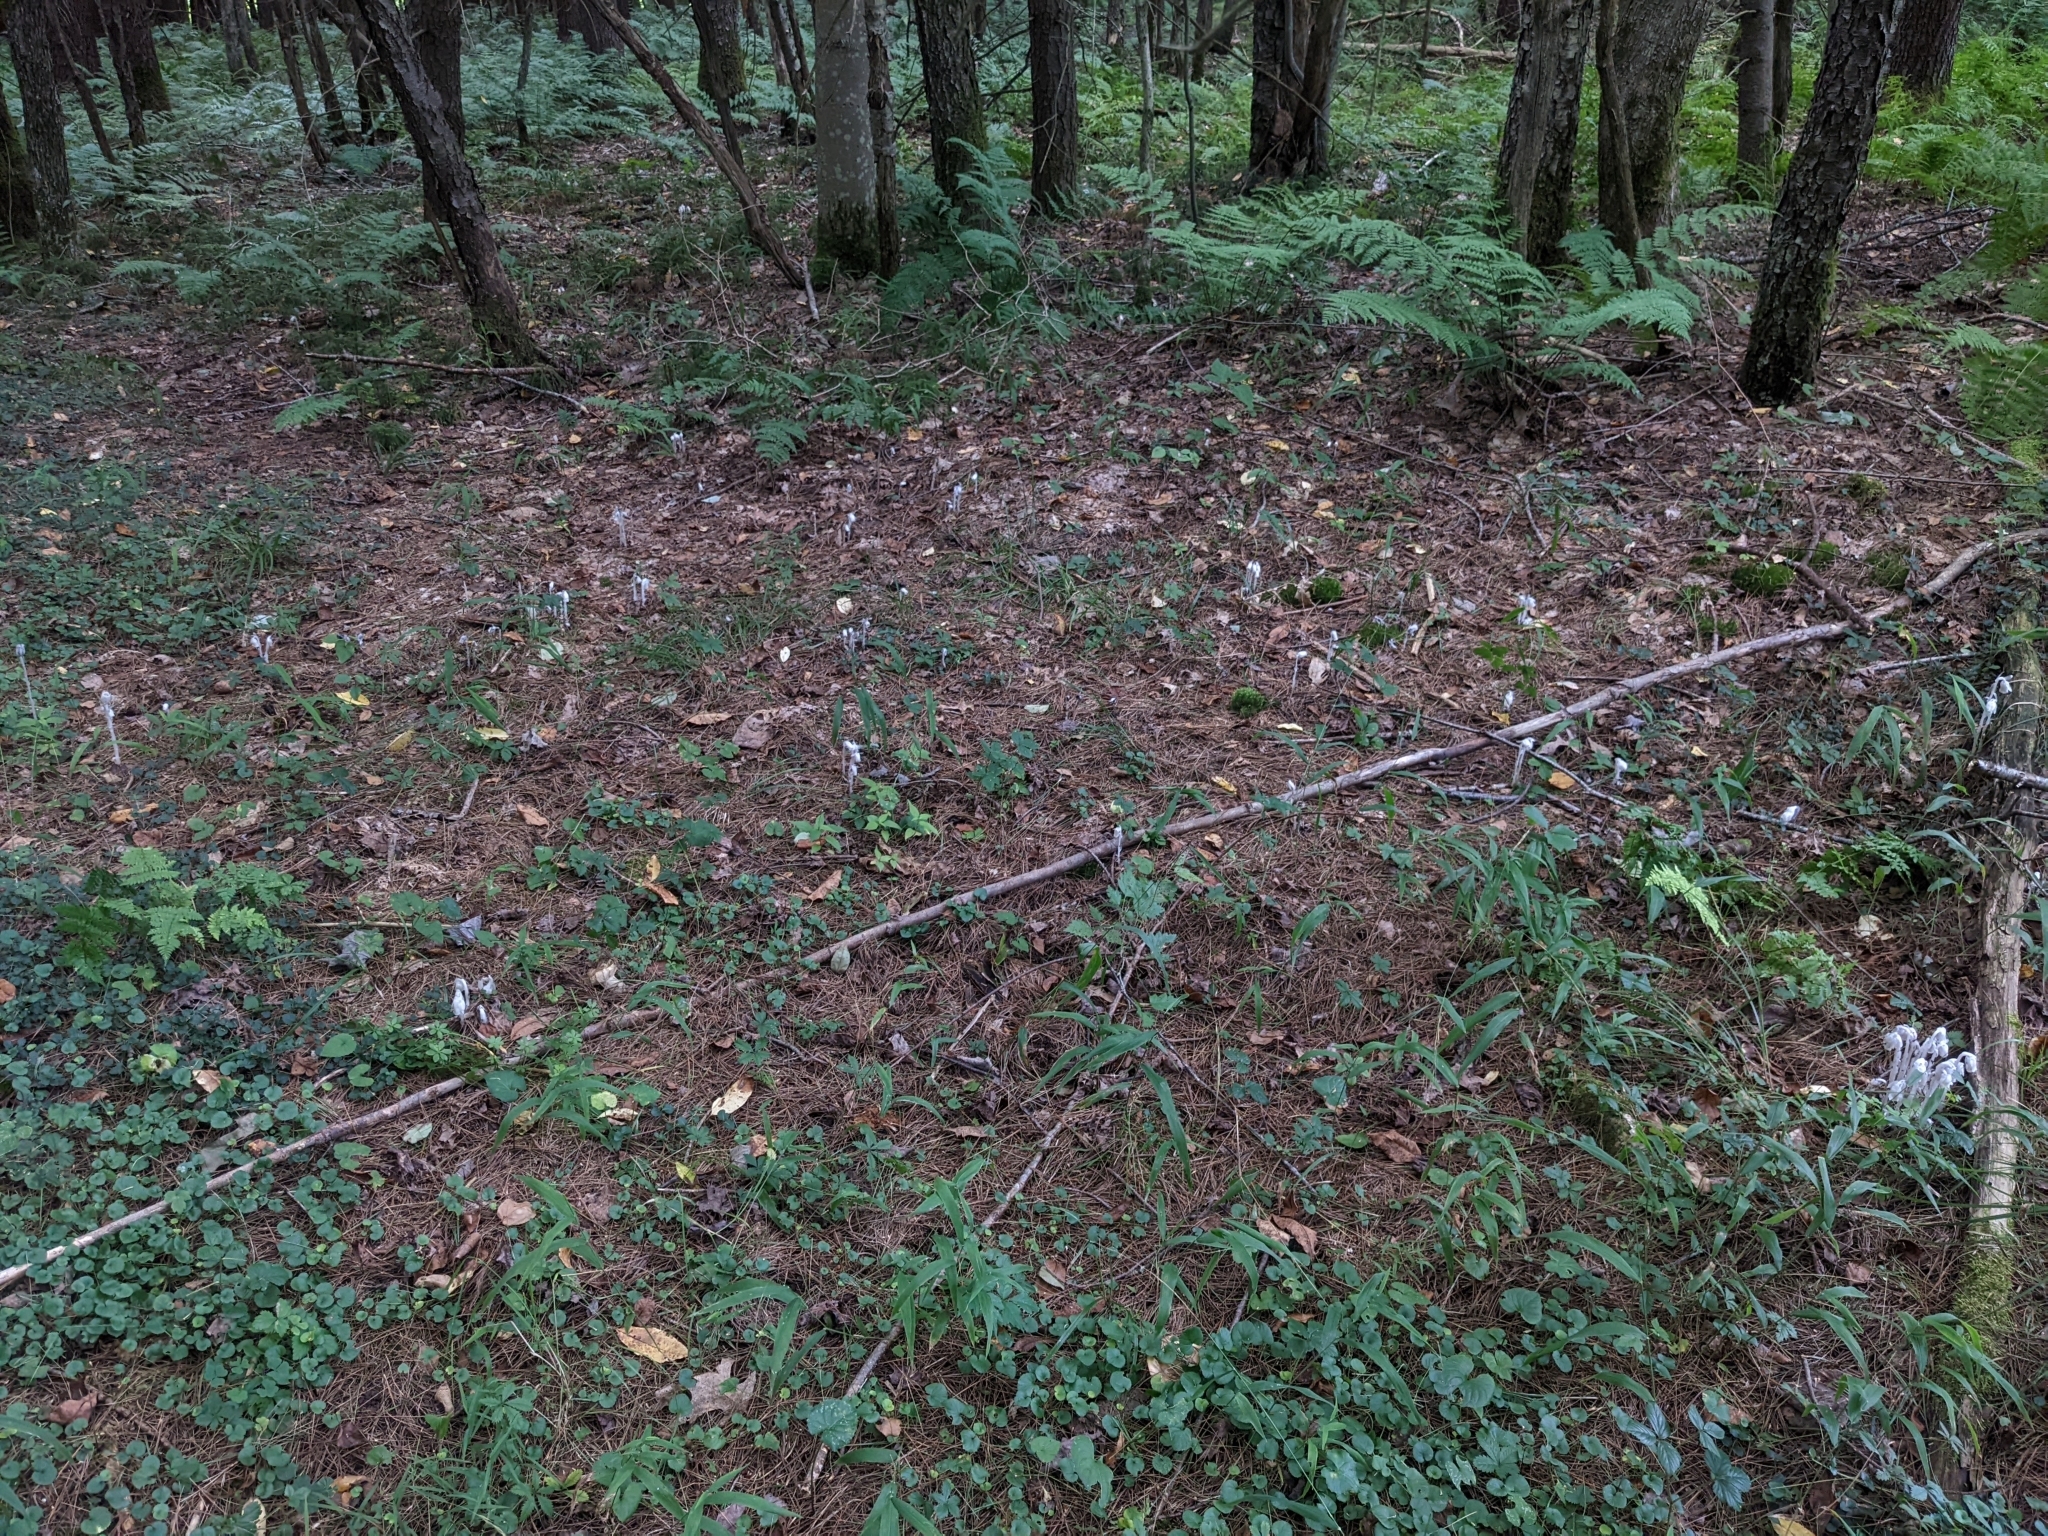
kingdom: Plantae
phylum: Tracheophyta
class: Magnoliopsida
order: Ericales
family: Ericaceae
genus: Monotropa
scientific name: Monotropa uniflora
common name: Convulsion root
